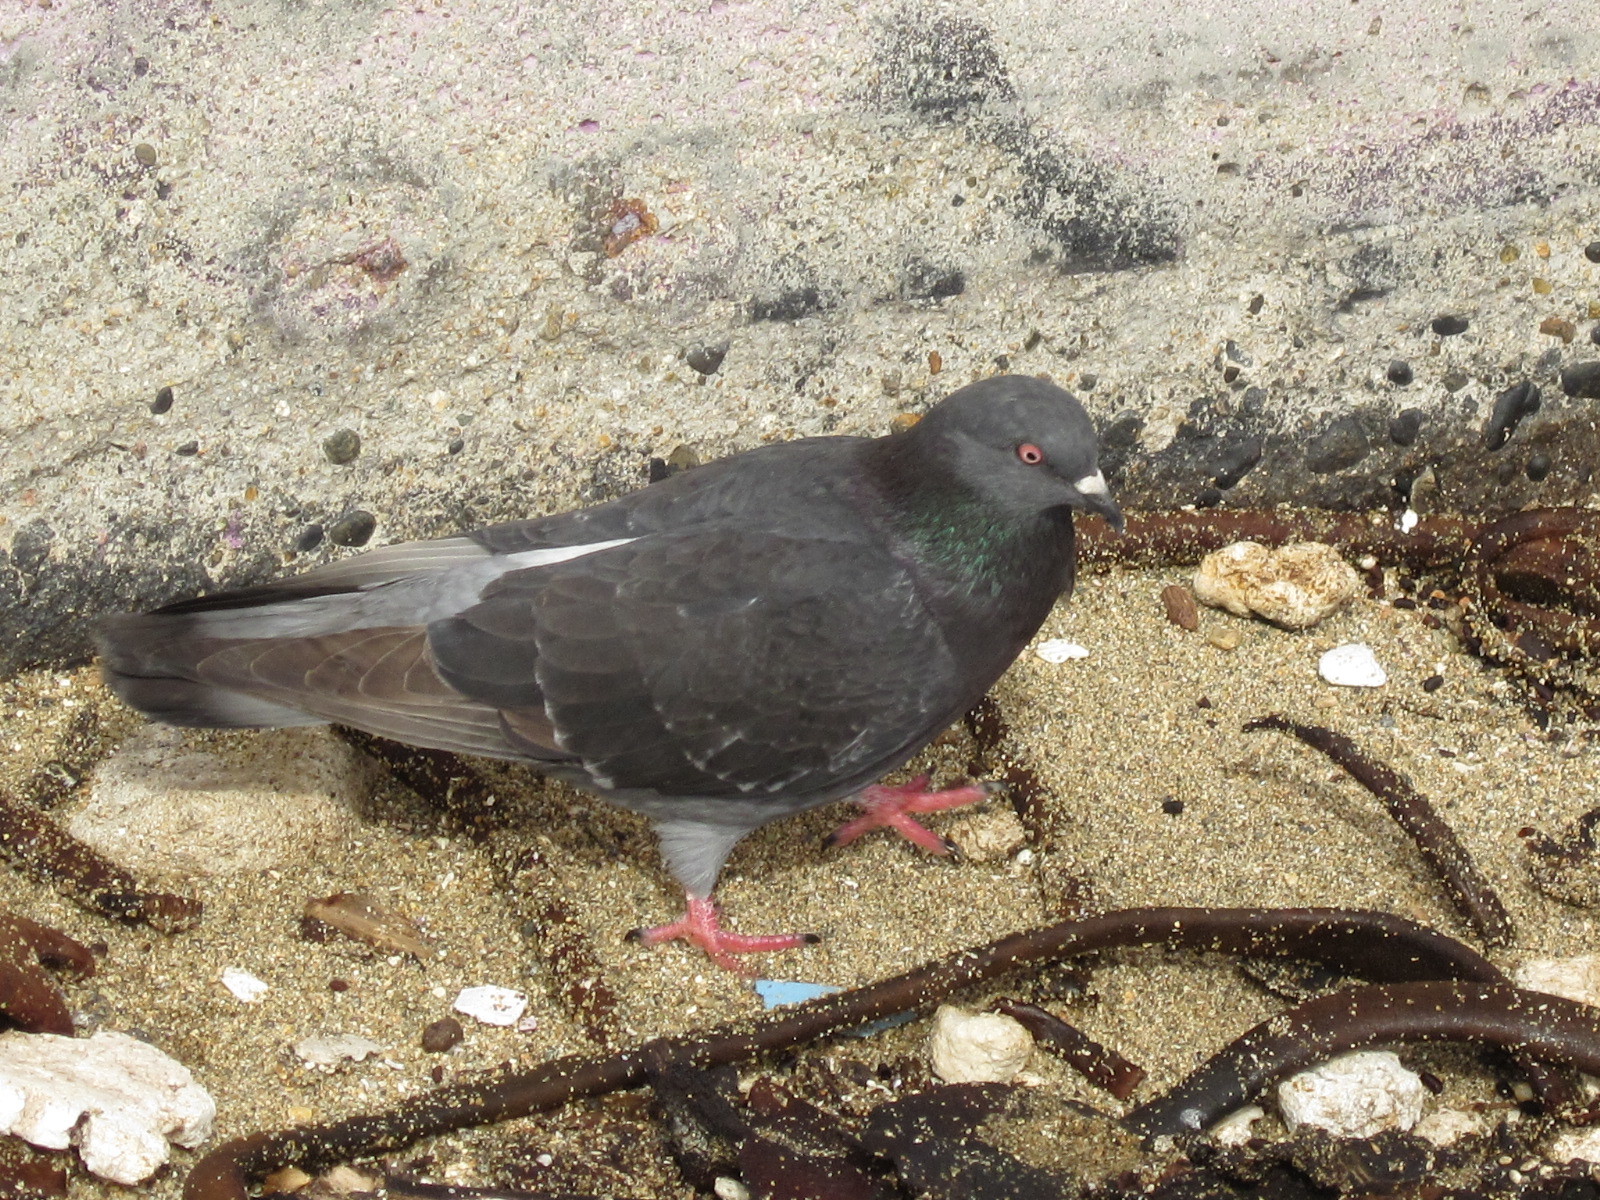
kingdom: Animalia
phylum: Chordata
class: Aves
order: Columbiformes
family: Columbidae
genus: Columba
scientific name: Columba livia
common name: Rock pigeon
